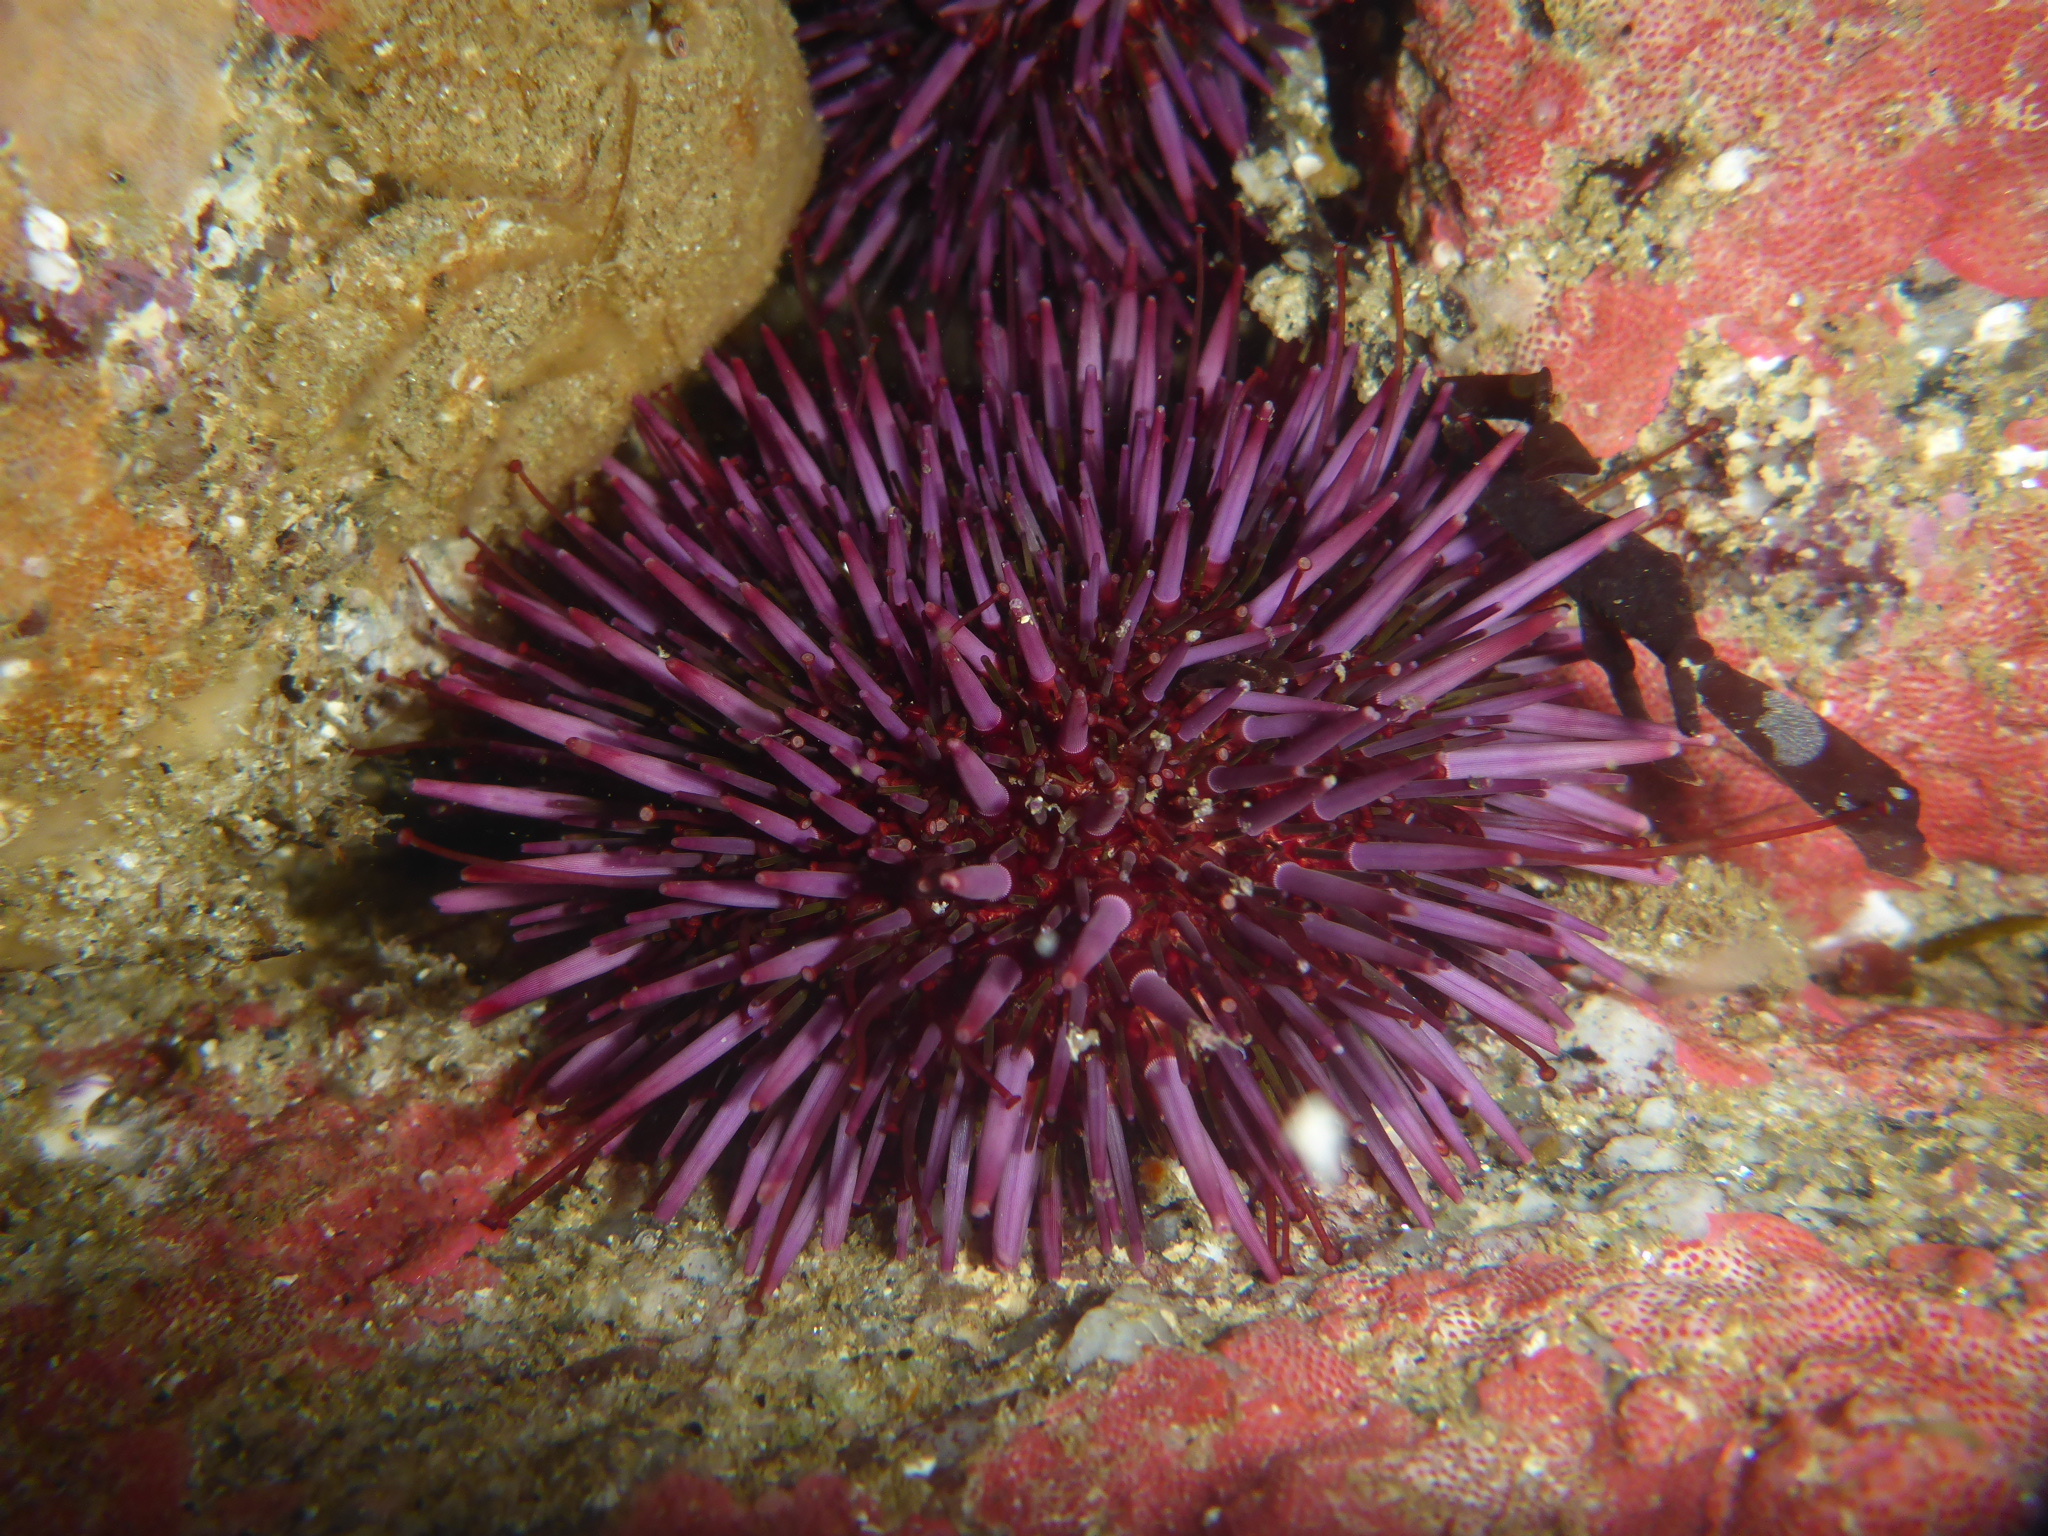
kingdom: Animalia
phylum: Echinodermata
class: Echinoidea
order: Camarodonta
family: Strongylocentrotidae
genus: Strongylocentrotus
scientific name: Strongylocentrotus purpuratus
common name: Purple sea urchin
